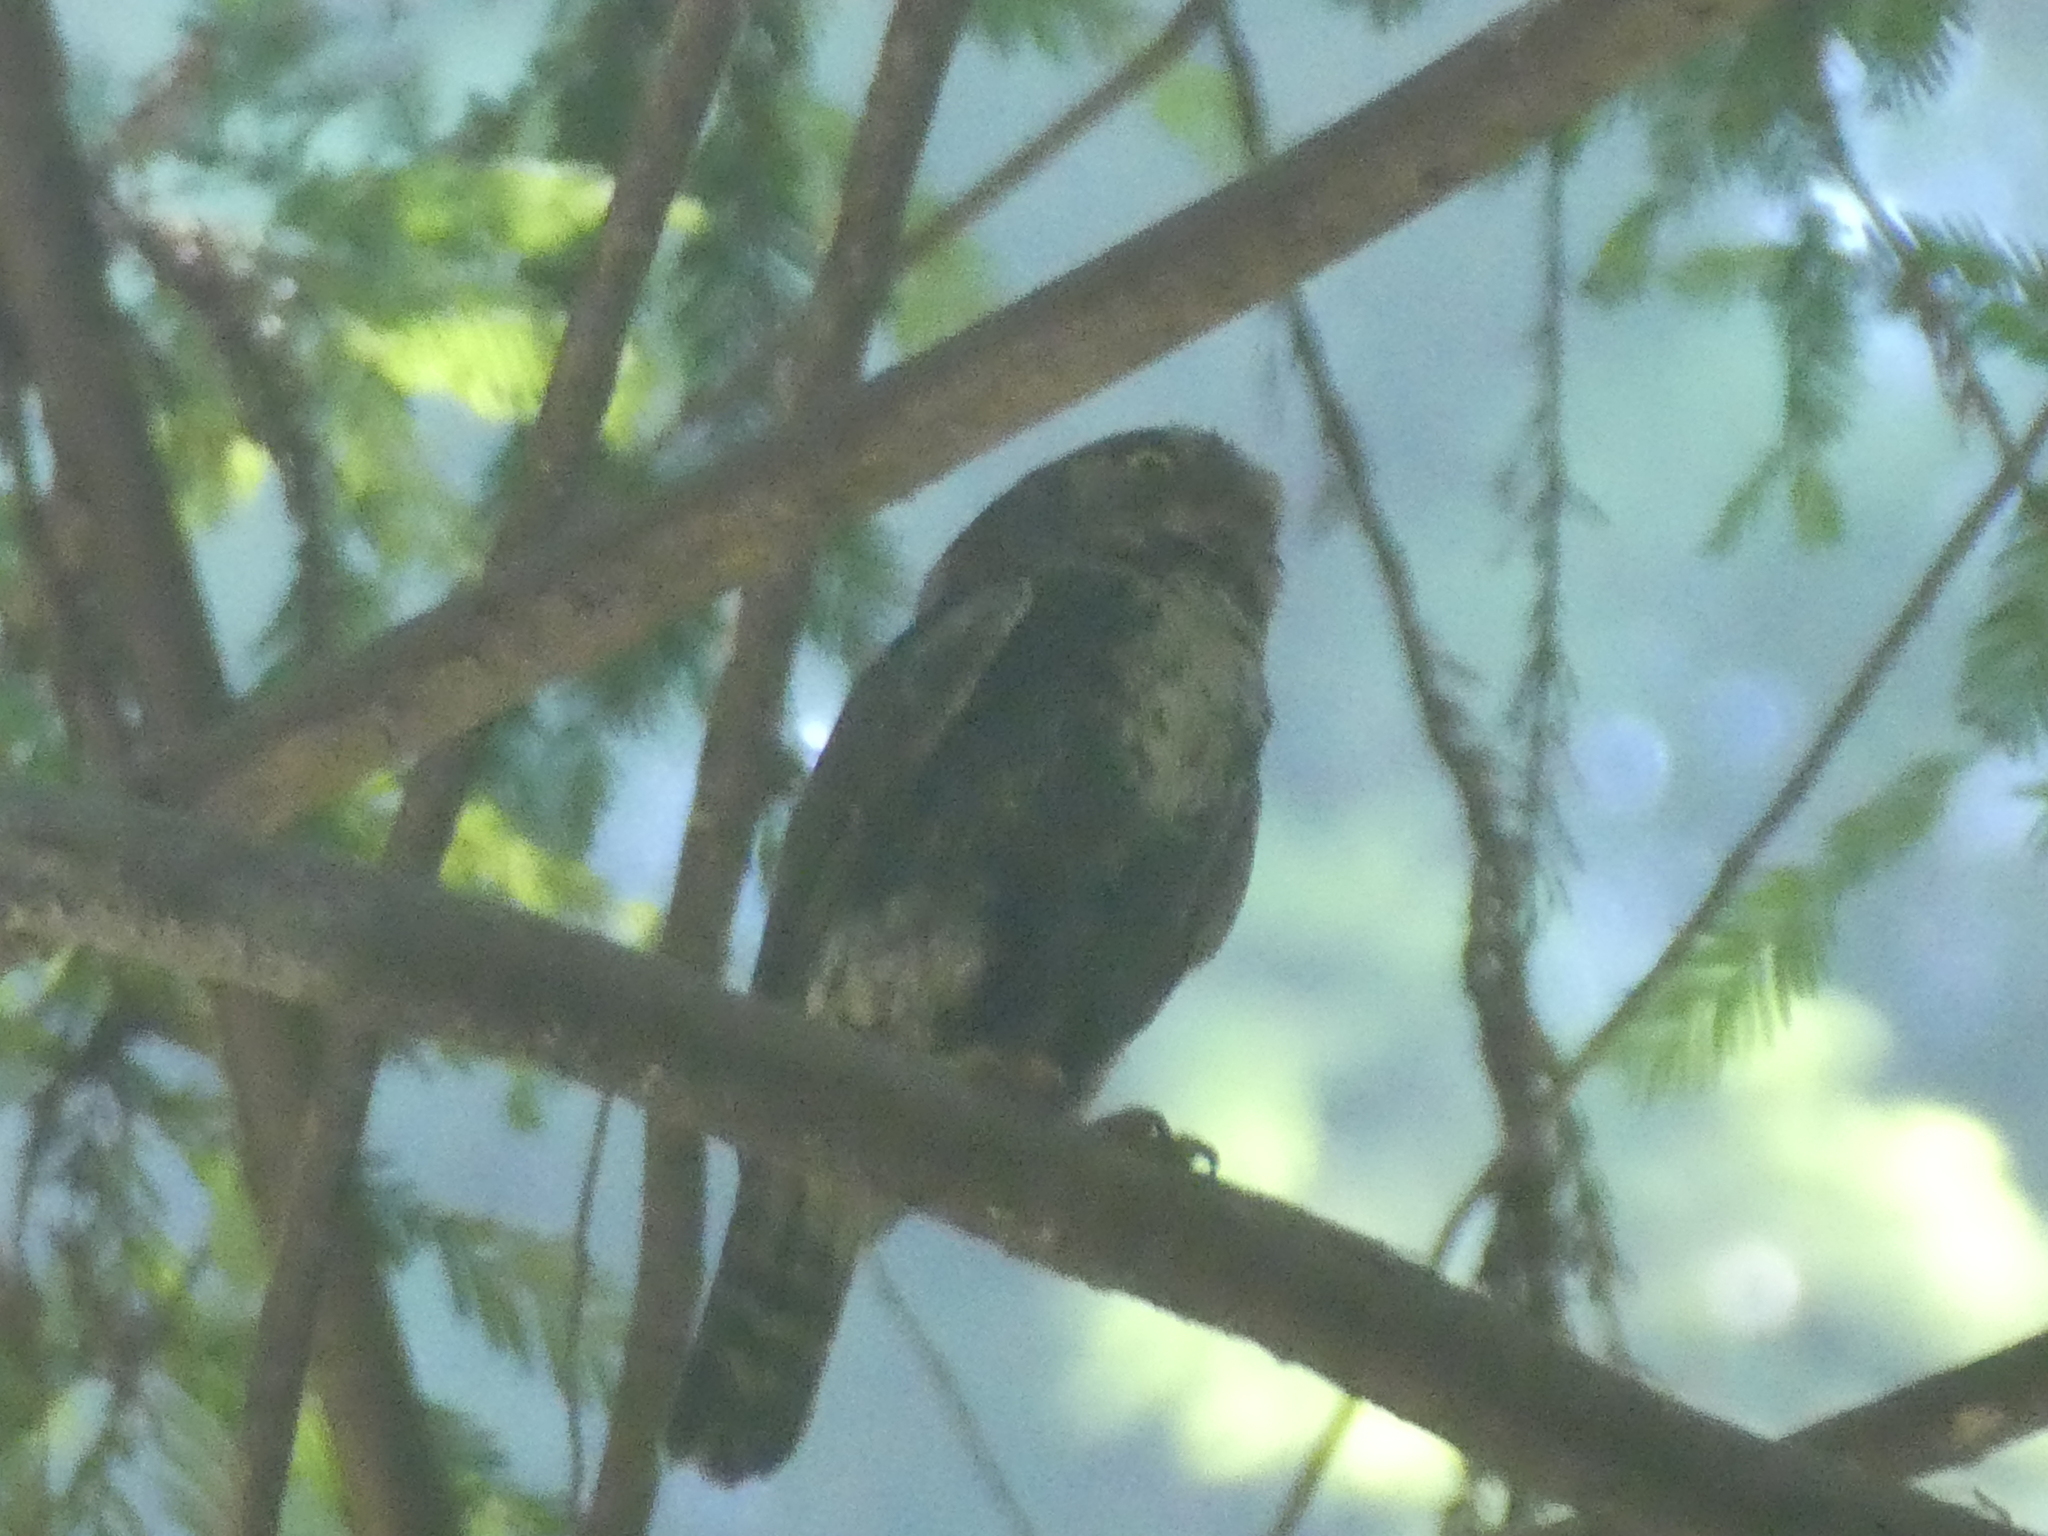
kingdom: Animalia
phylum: Chordata
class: Aves
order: Strigiformes
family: Strigidae
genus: Glaucidium
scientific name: Glaucidium gnoma
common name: Northern pygmy-owl
